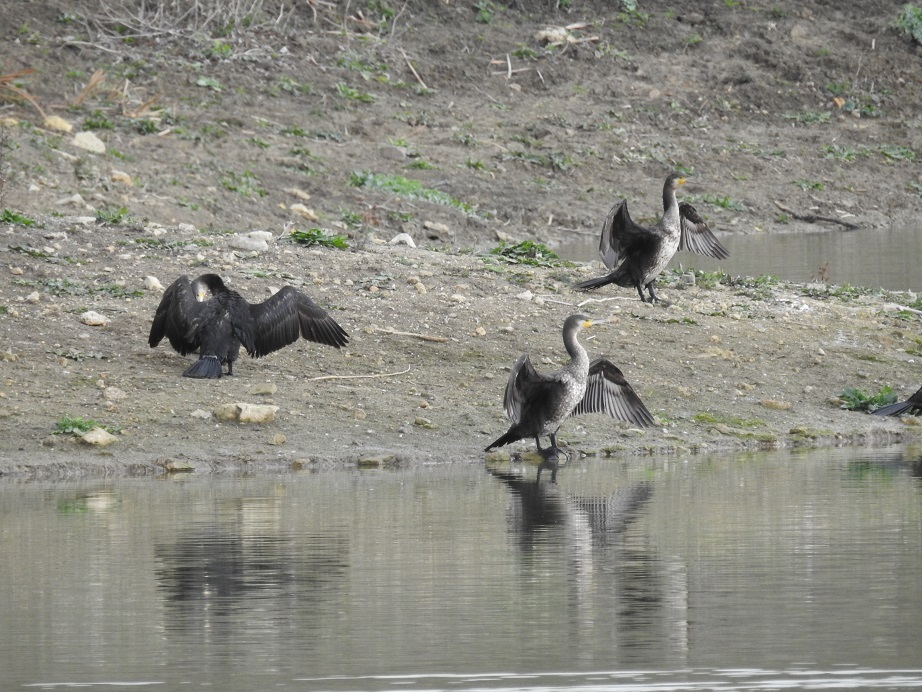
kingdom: Animalia
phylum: Chordata
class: Aves
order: Suliformes
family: Phalacrocoracidae
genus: Phalacrocorax
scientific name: Phalacrocorax carbo
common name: Great cormorant
